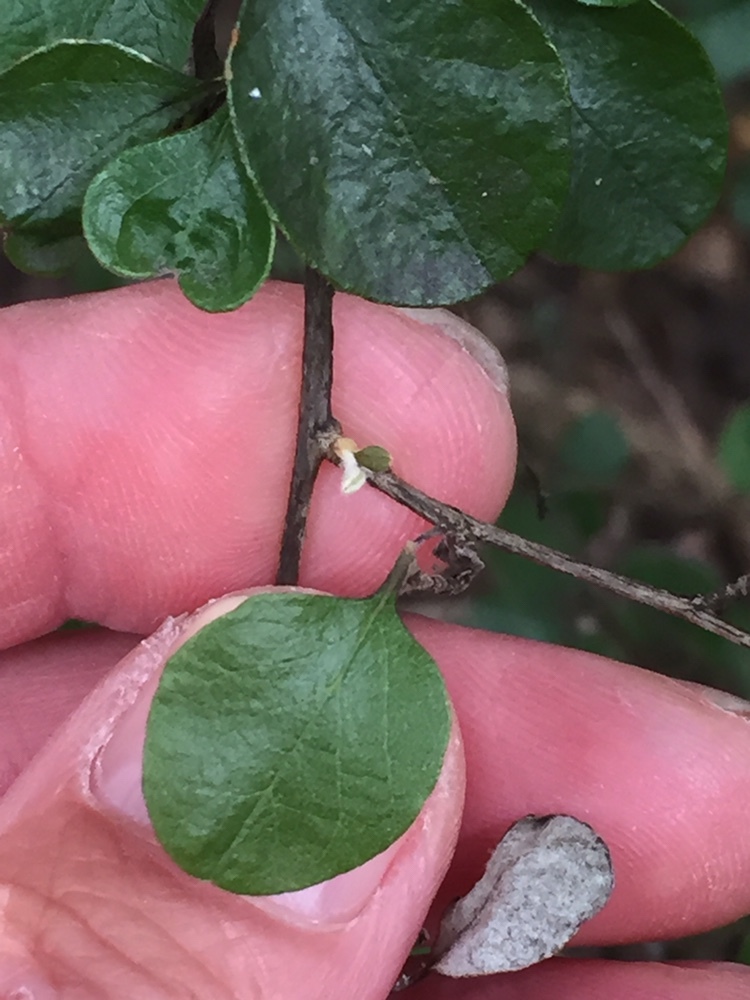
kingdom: Plantae
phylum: Tracheophyta
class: Magnoliopsida
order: Asterales
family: Asteraceae
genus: Ozothamnus
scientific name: Ozothamnus glomeratus
